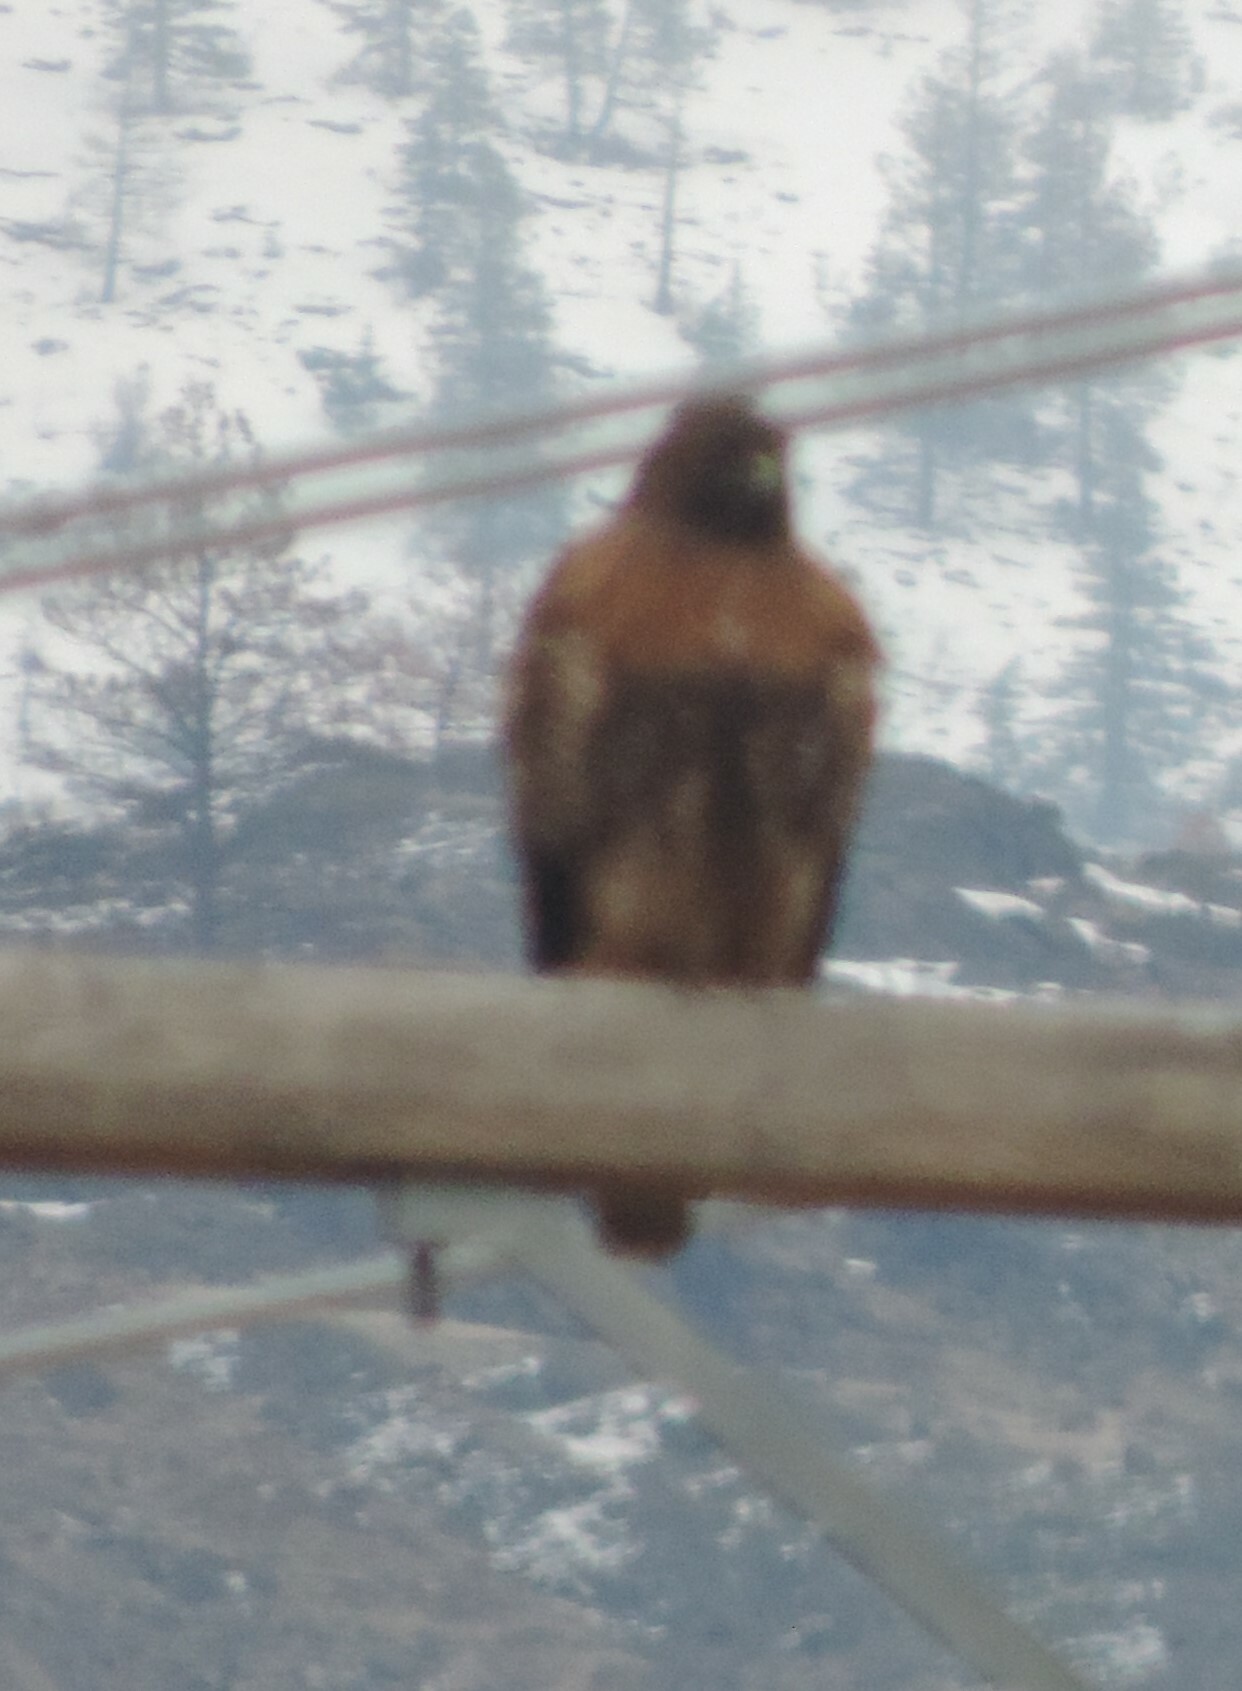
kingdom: Animalia
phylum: Chordata
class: Aves
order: Accipitriformes
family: Accipitridae
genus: Buteo
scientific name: Buteo jamaicensis
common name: Red-tailed hawk
